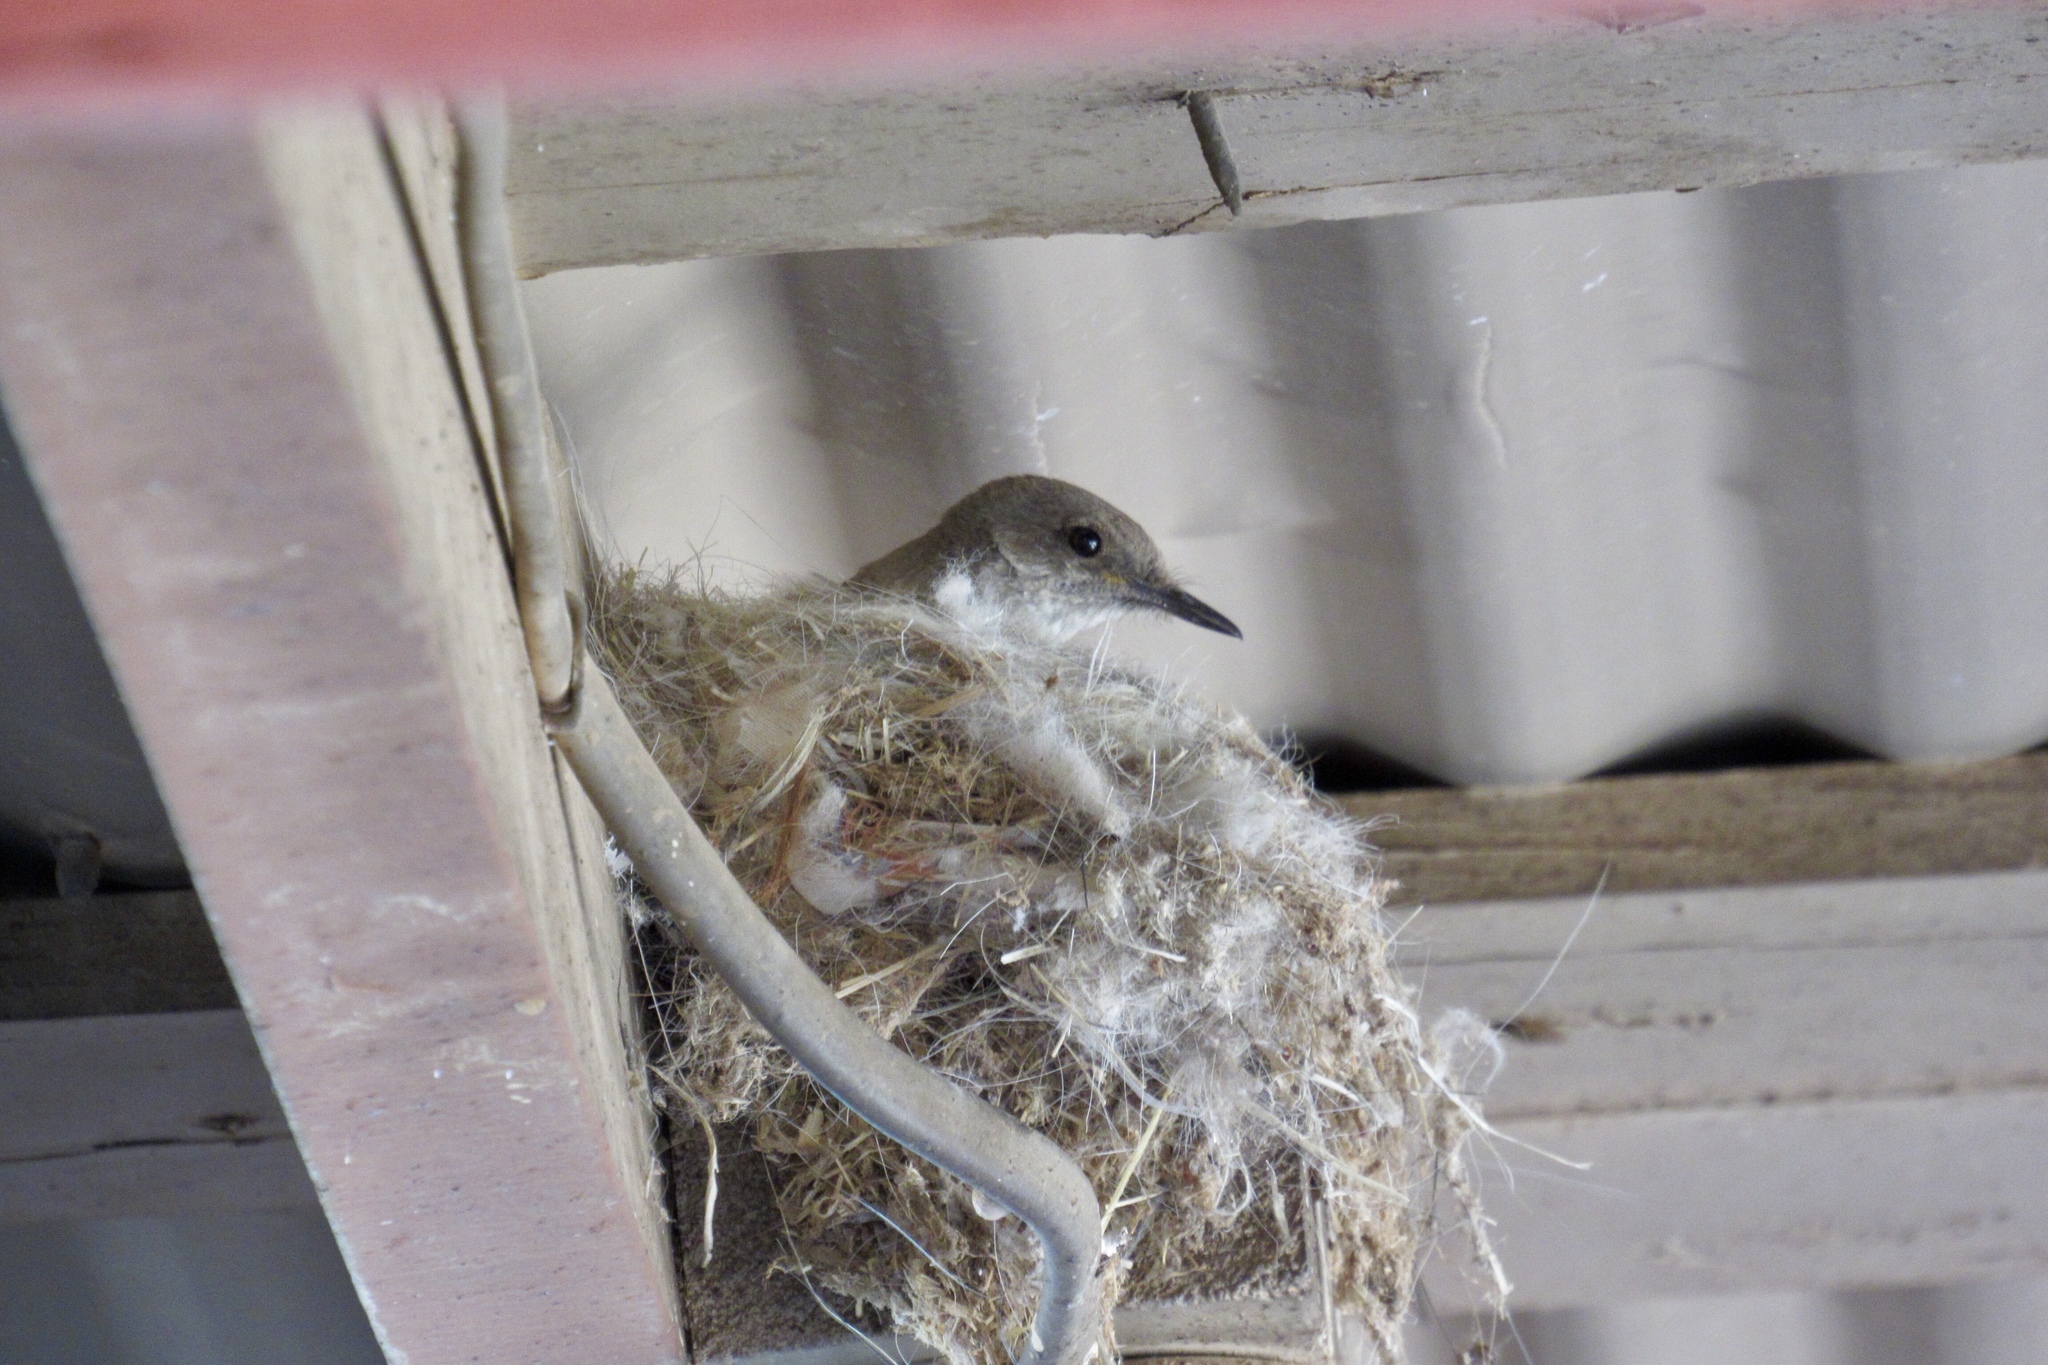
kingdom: Animalia
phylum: Chordata
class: Aves
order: Passeriformes
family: Tyrannidae
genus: Sayornis
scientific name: Sayornis saya
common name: Say's phoebe
